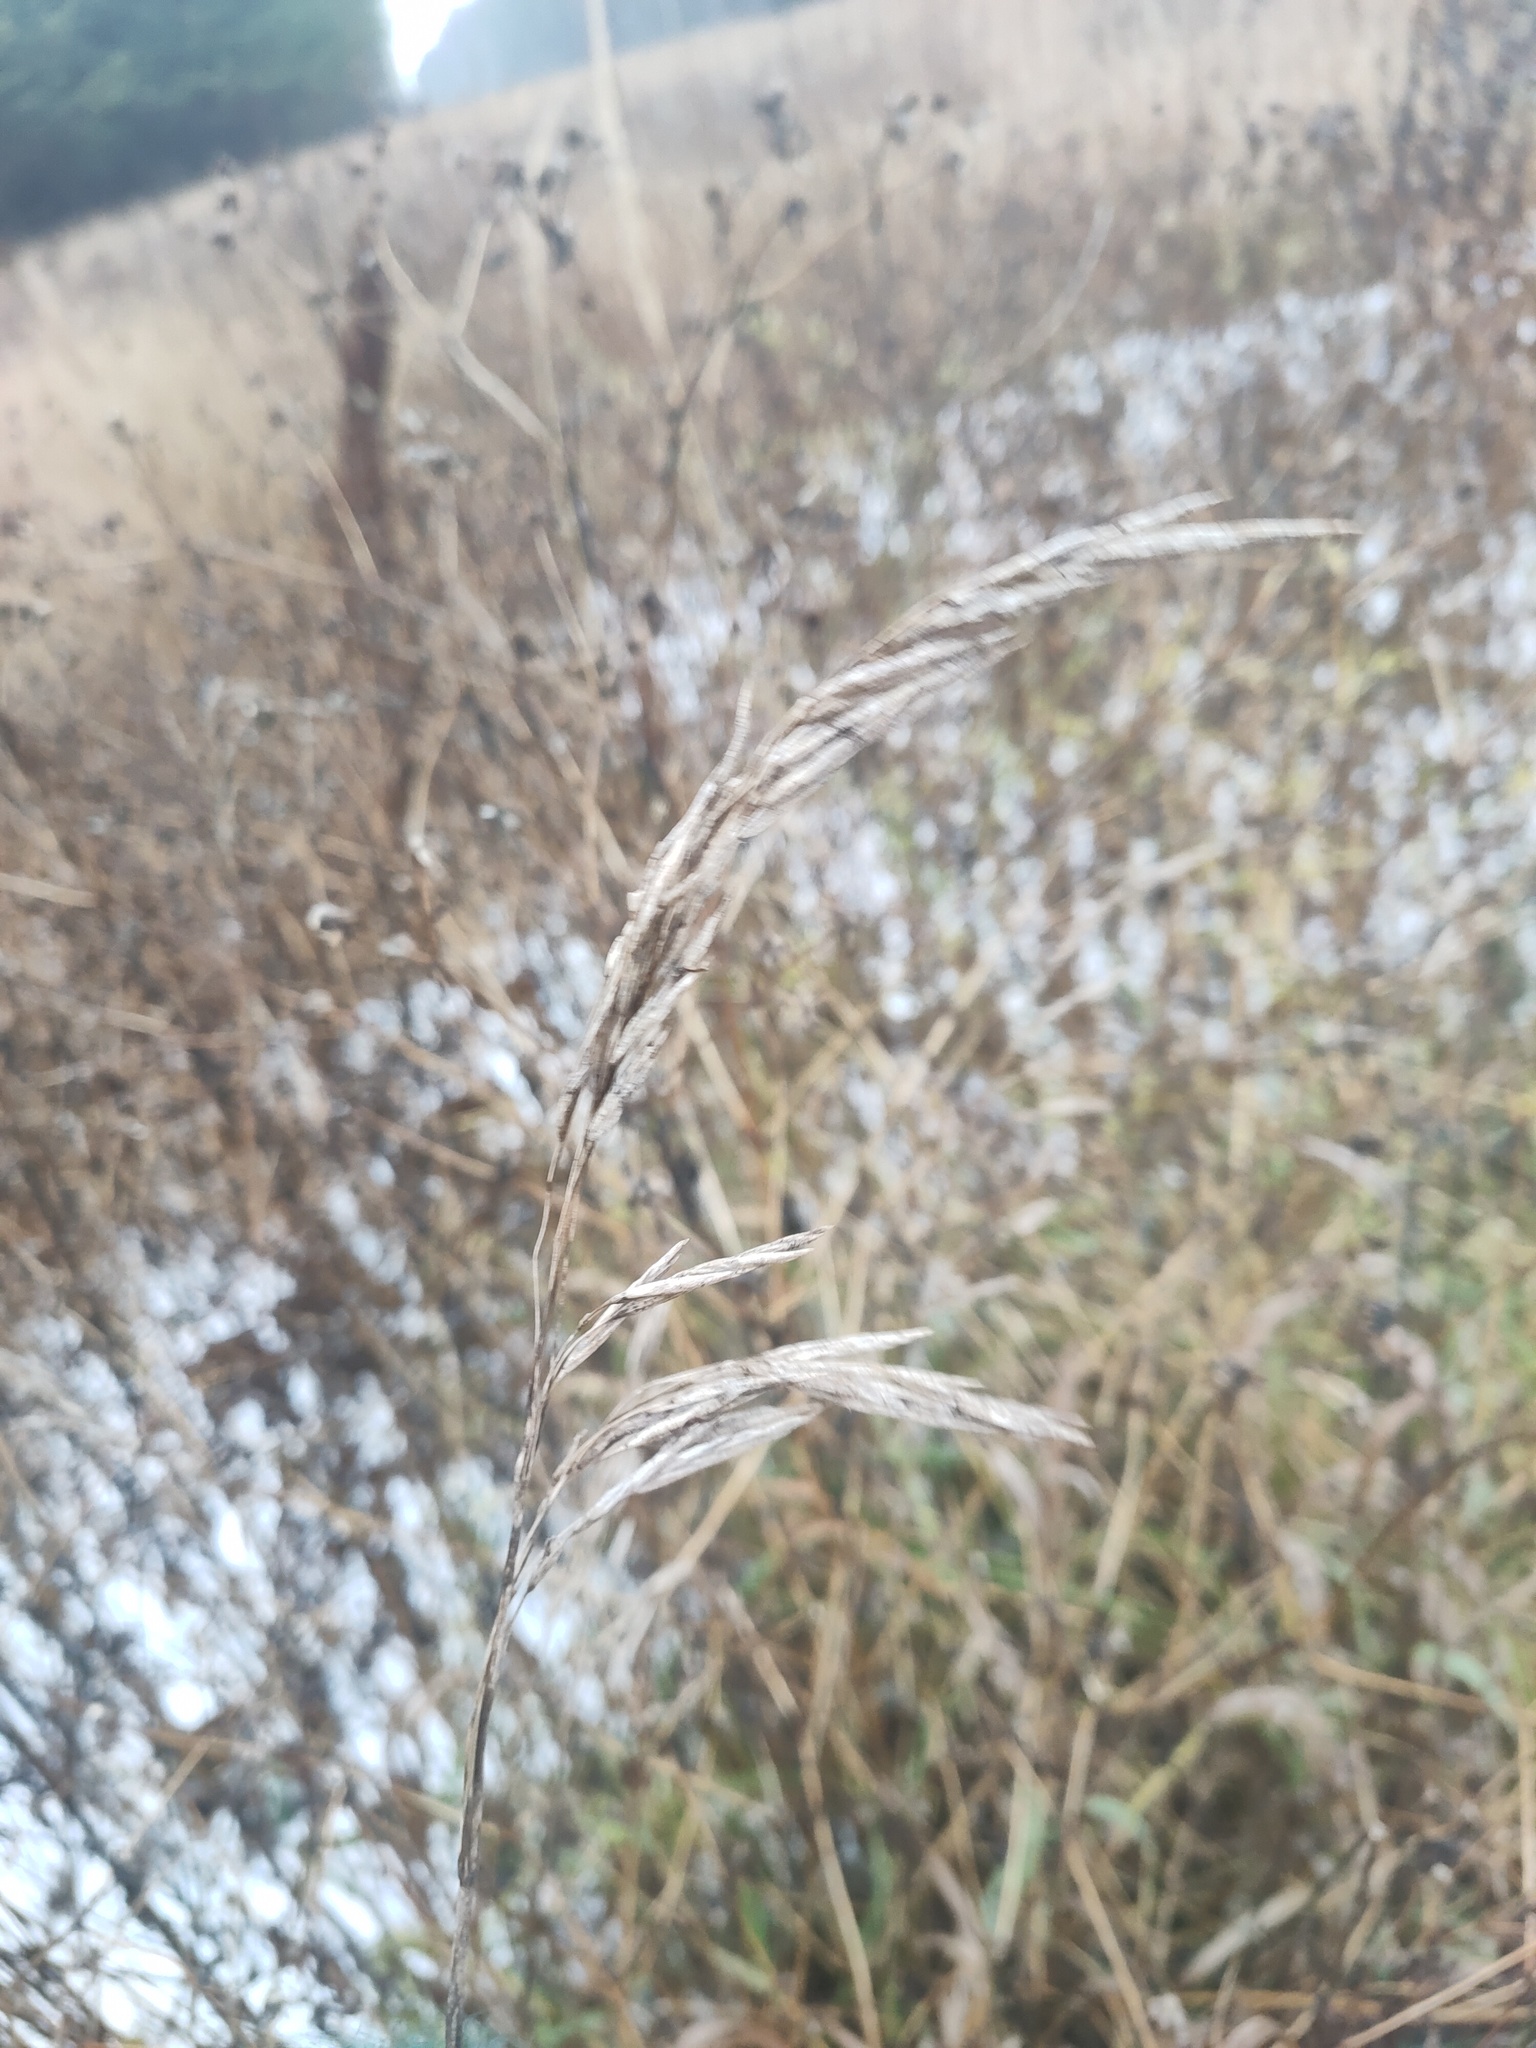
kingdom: Plantae
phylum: Tracheophyta
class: Liliopsida
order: Poales
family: Poaceae
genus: Bromus
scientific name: Bromus inermis
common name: Smooth brome
